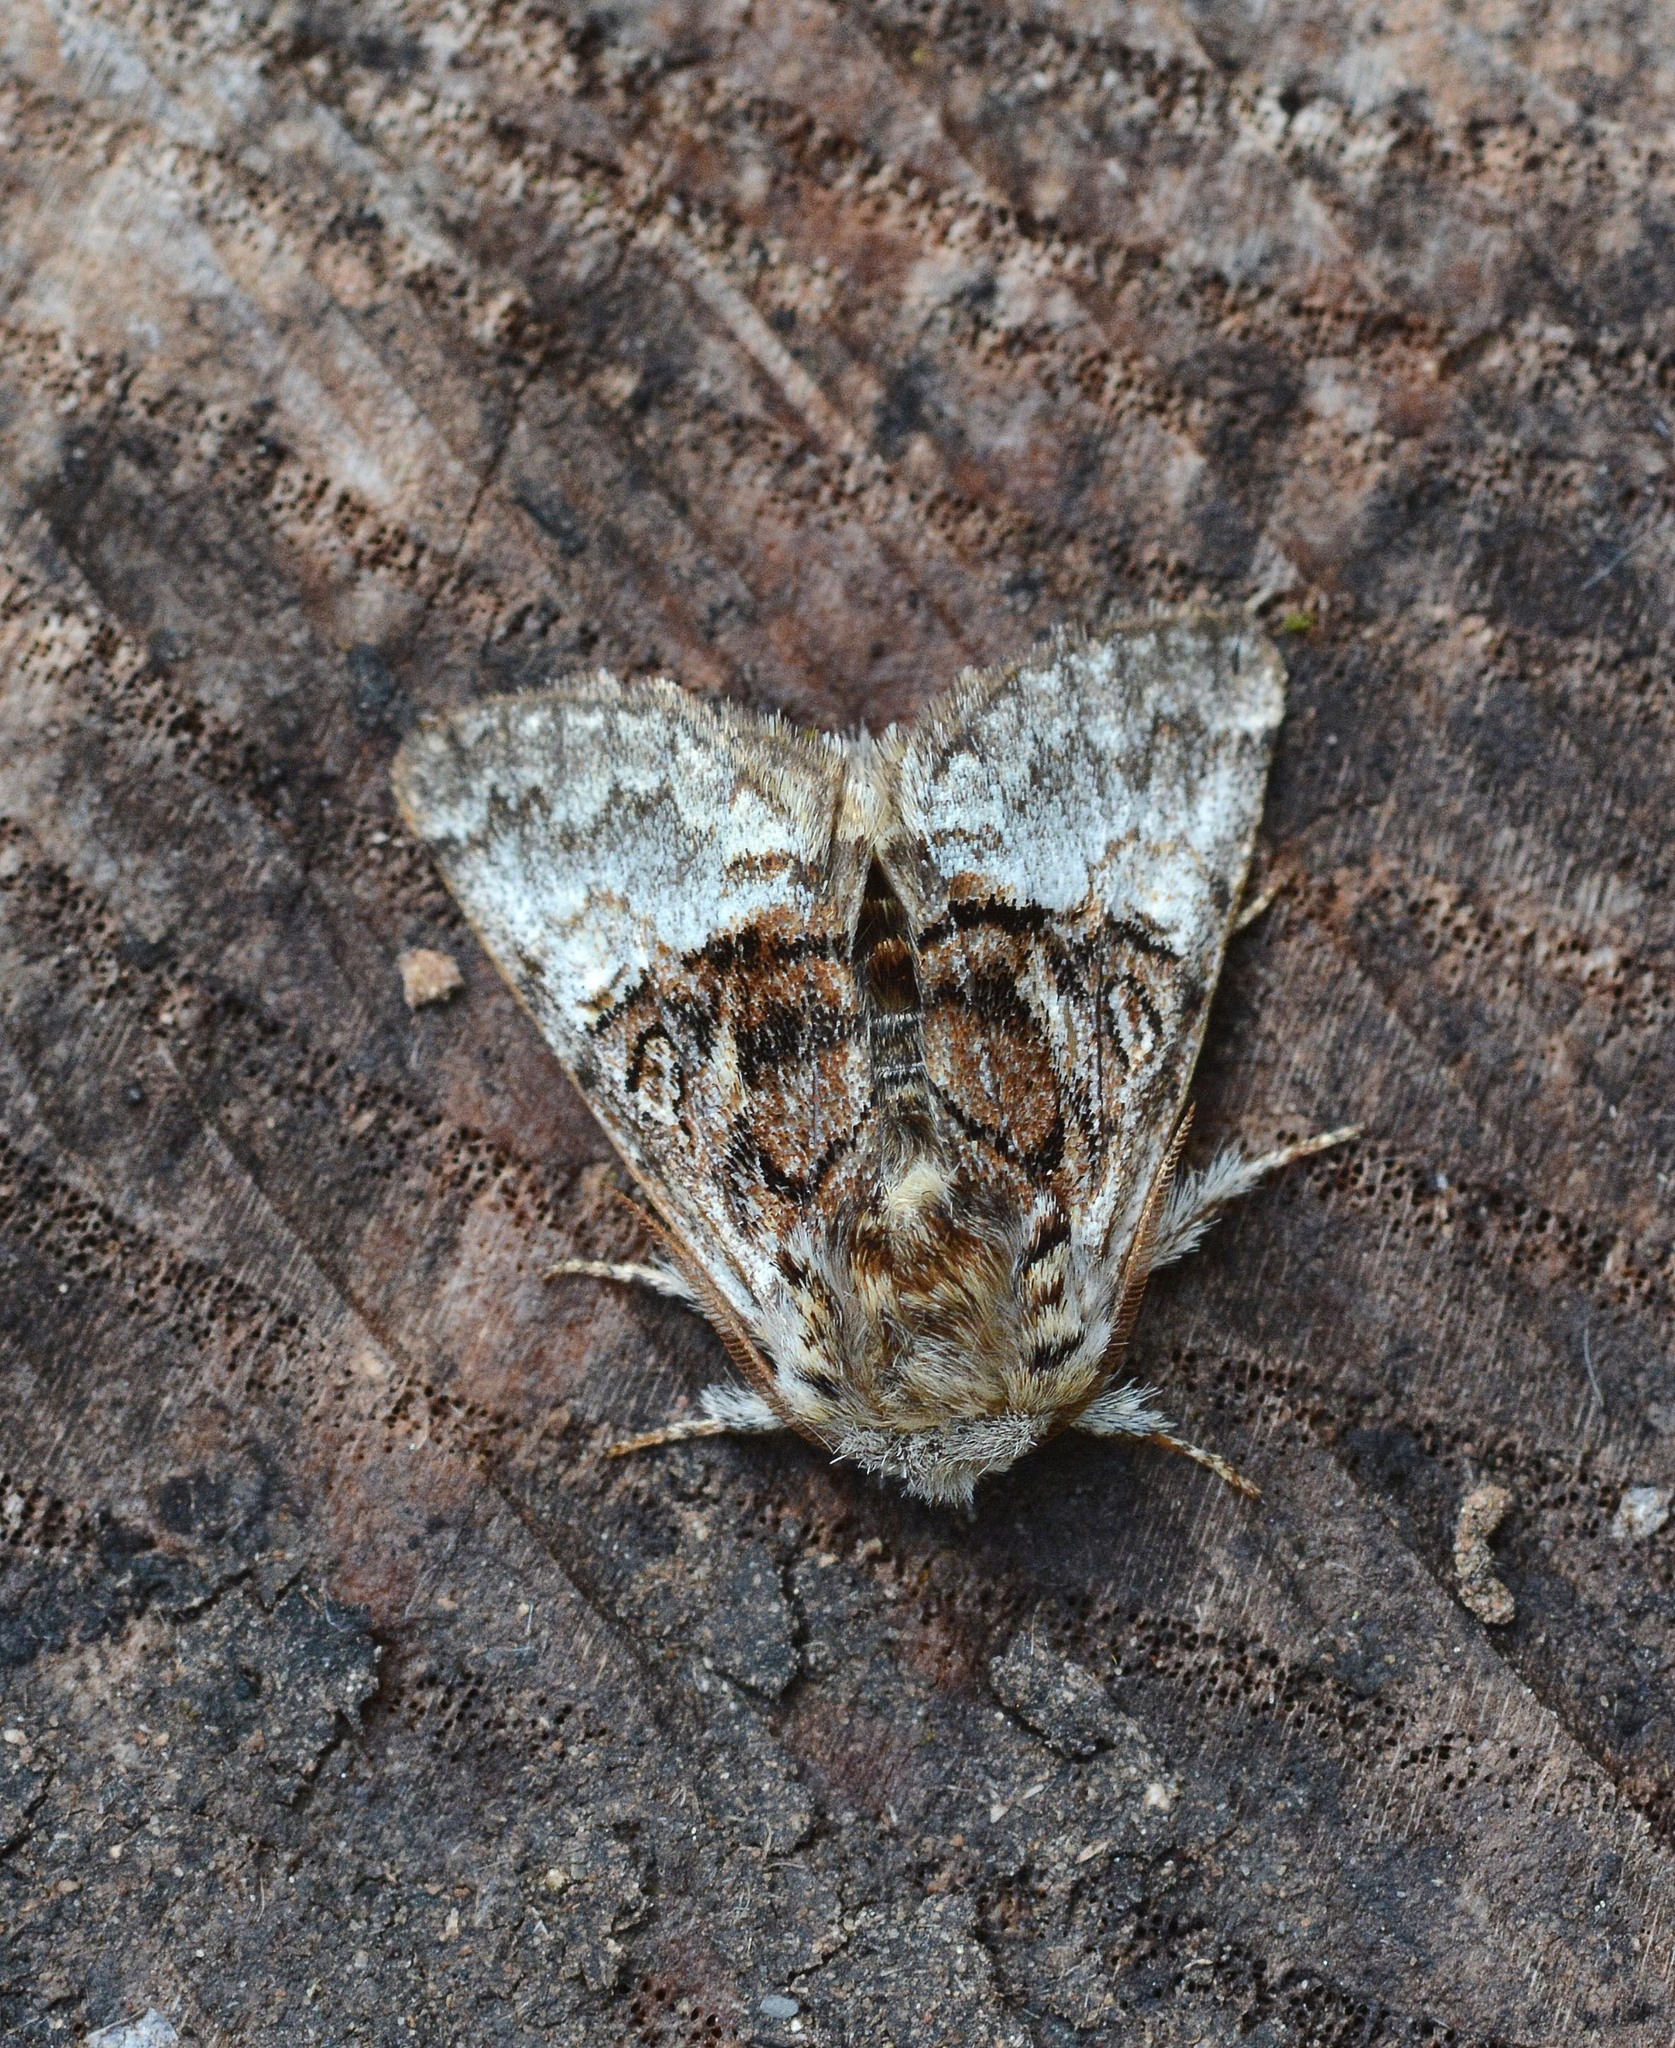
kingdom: Animalia
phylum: Arthropoda
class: Insecta
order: Lepidoptera
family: Noctuidae
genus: Colocasia
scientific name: Colocasia coryli
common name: Nut-tree tussock
